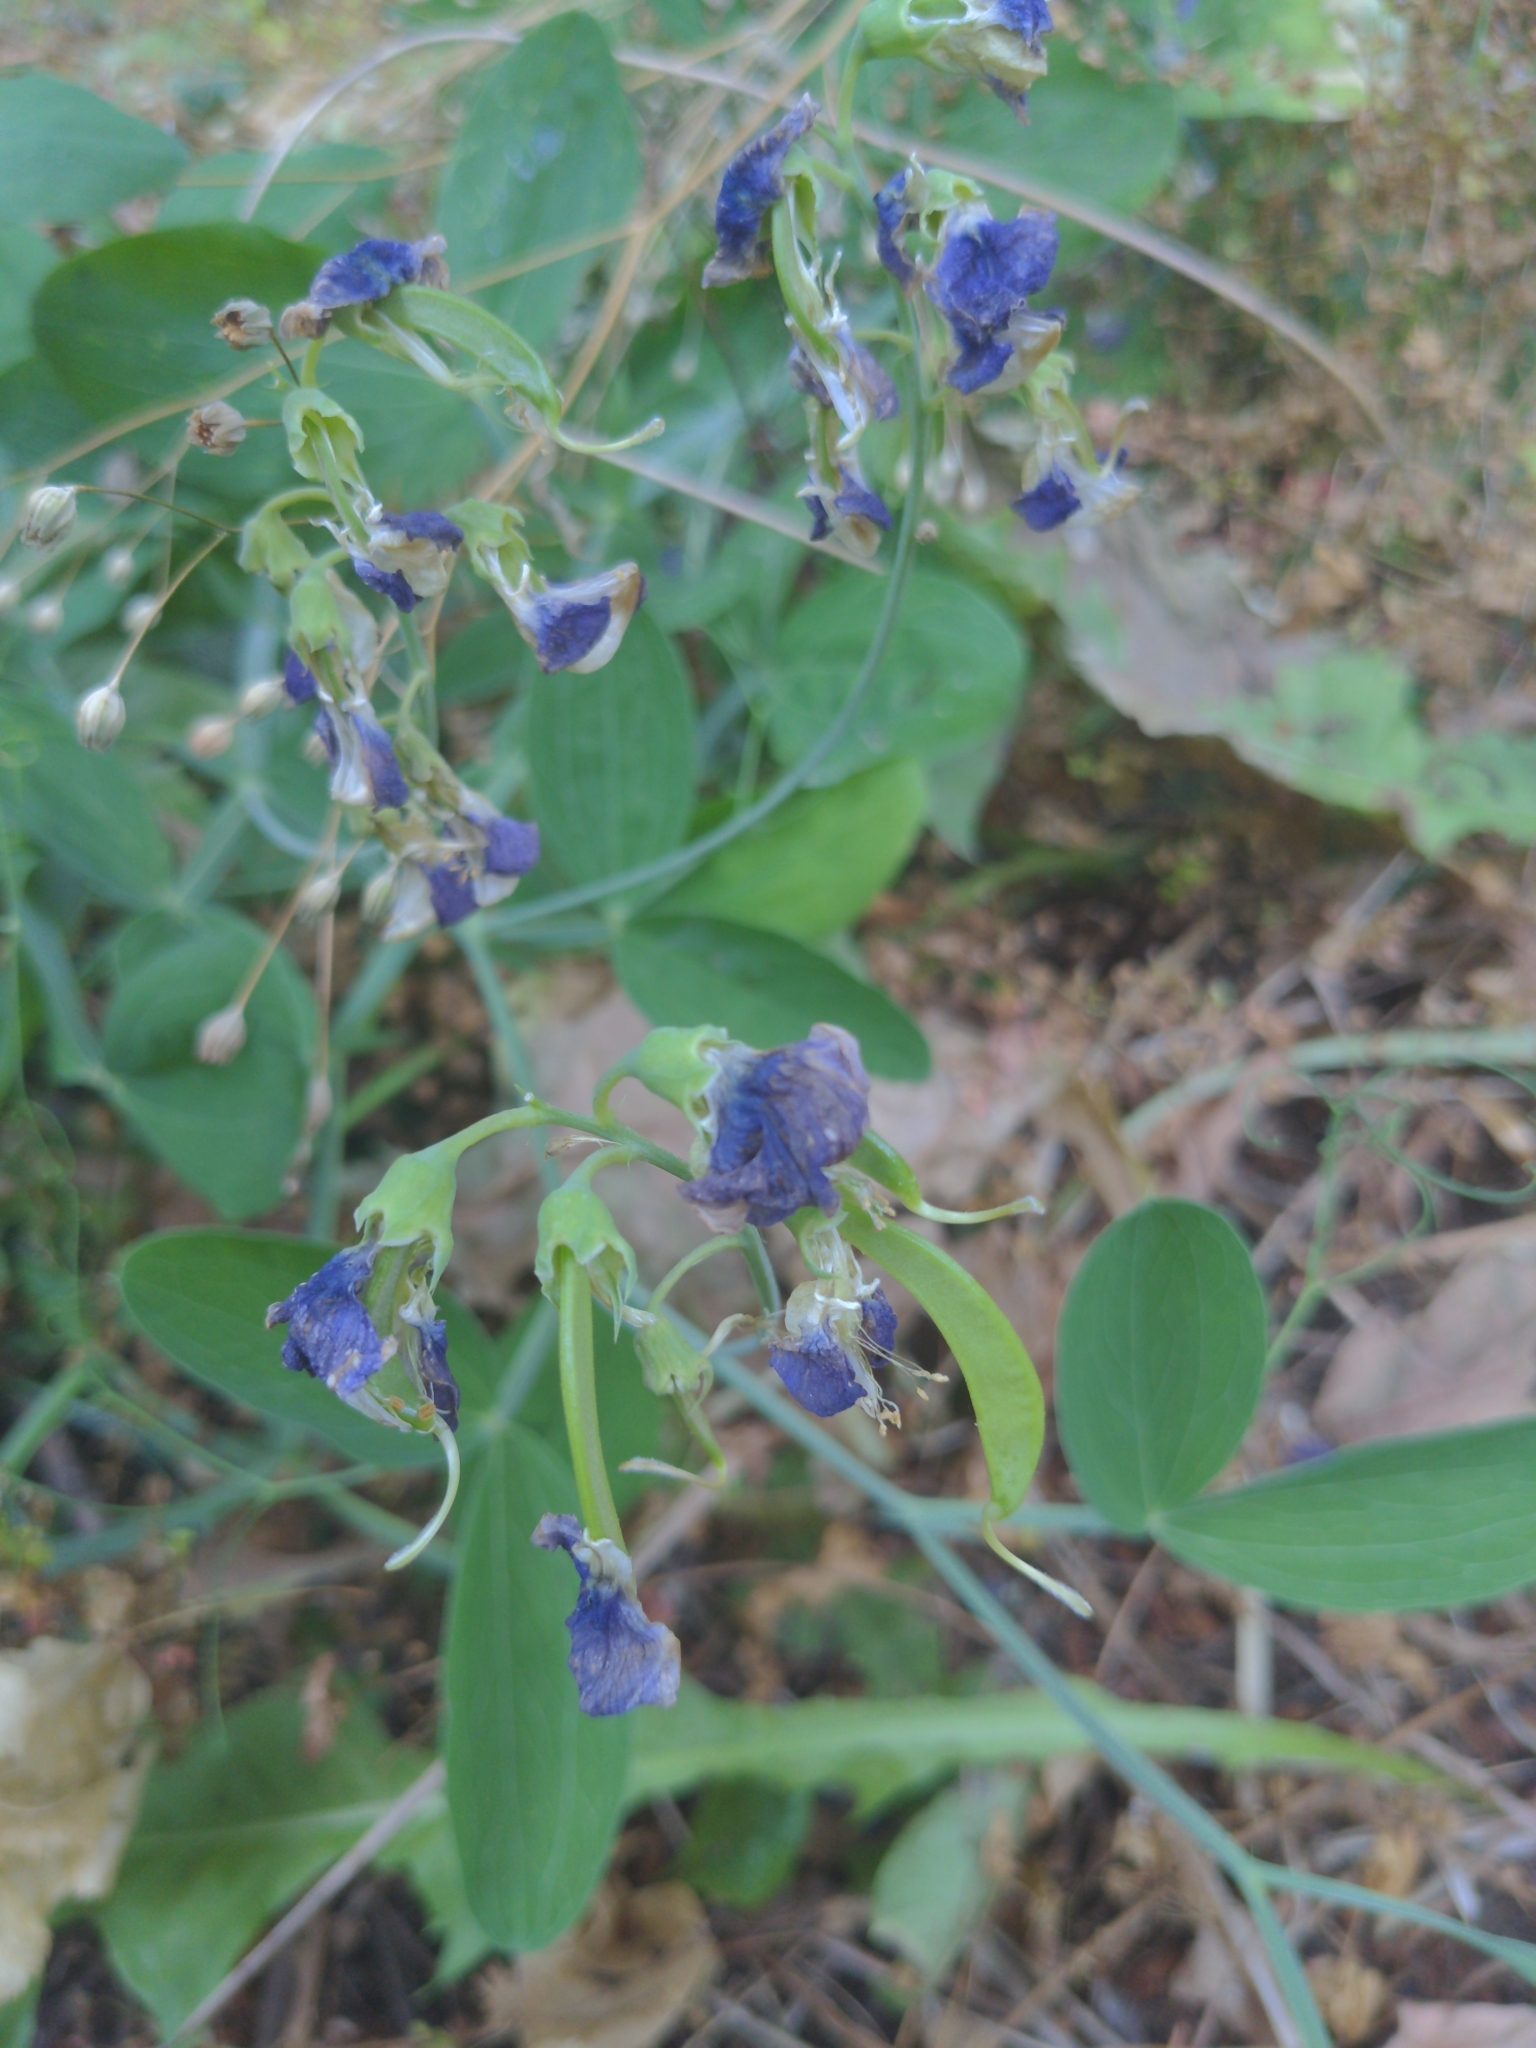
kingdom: Plantae
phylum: Tracheophyta
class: Magnoliopsida
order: Fabales
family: Fabaceae
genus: Lathyrus
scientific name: Lathyrus latifolius
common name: Perennial pea
